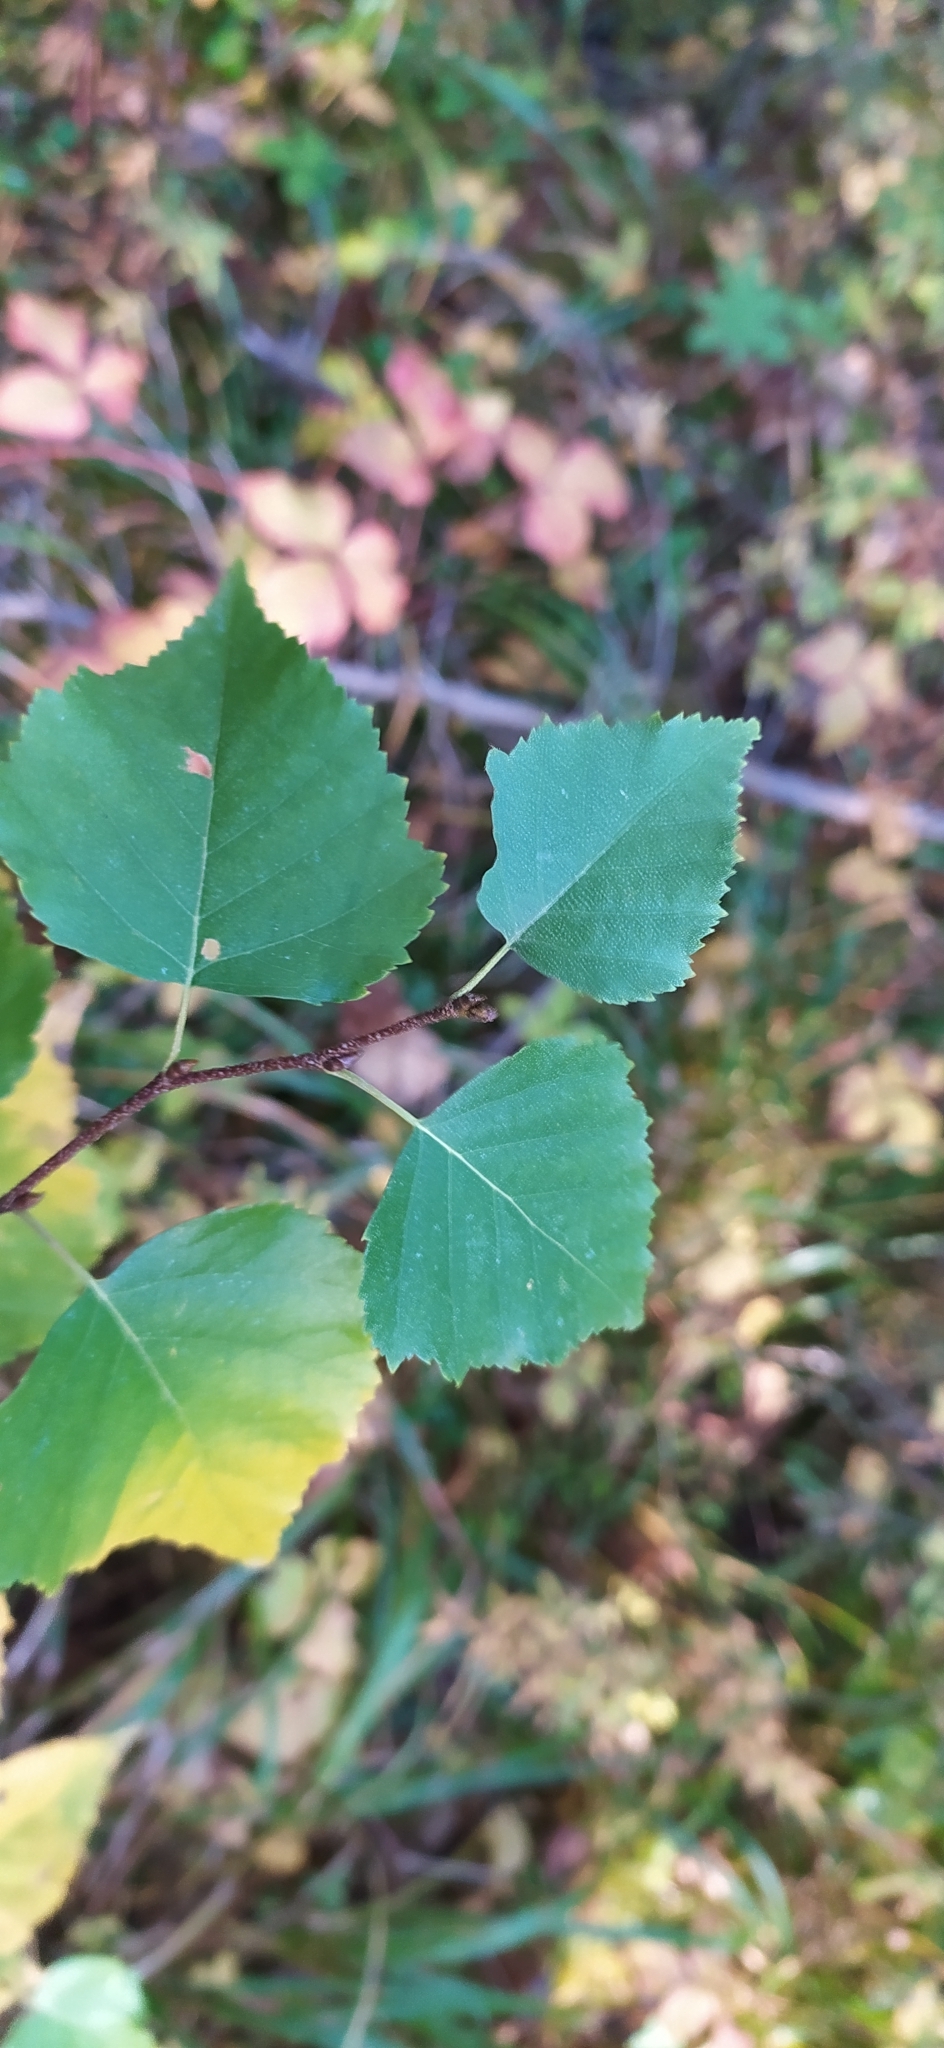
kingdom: Plantae
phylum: Tracheophyta
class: Magnoliopsida
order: Fagales
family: Betulaceae
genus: Betula
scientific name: Betula pendula
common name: Silver birch
